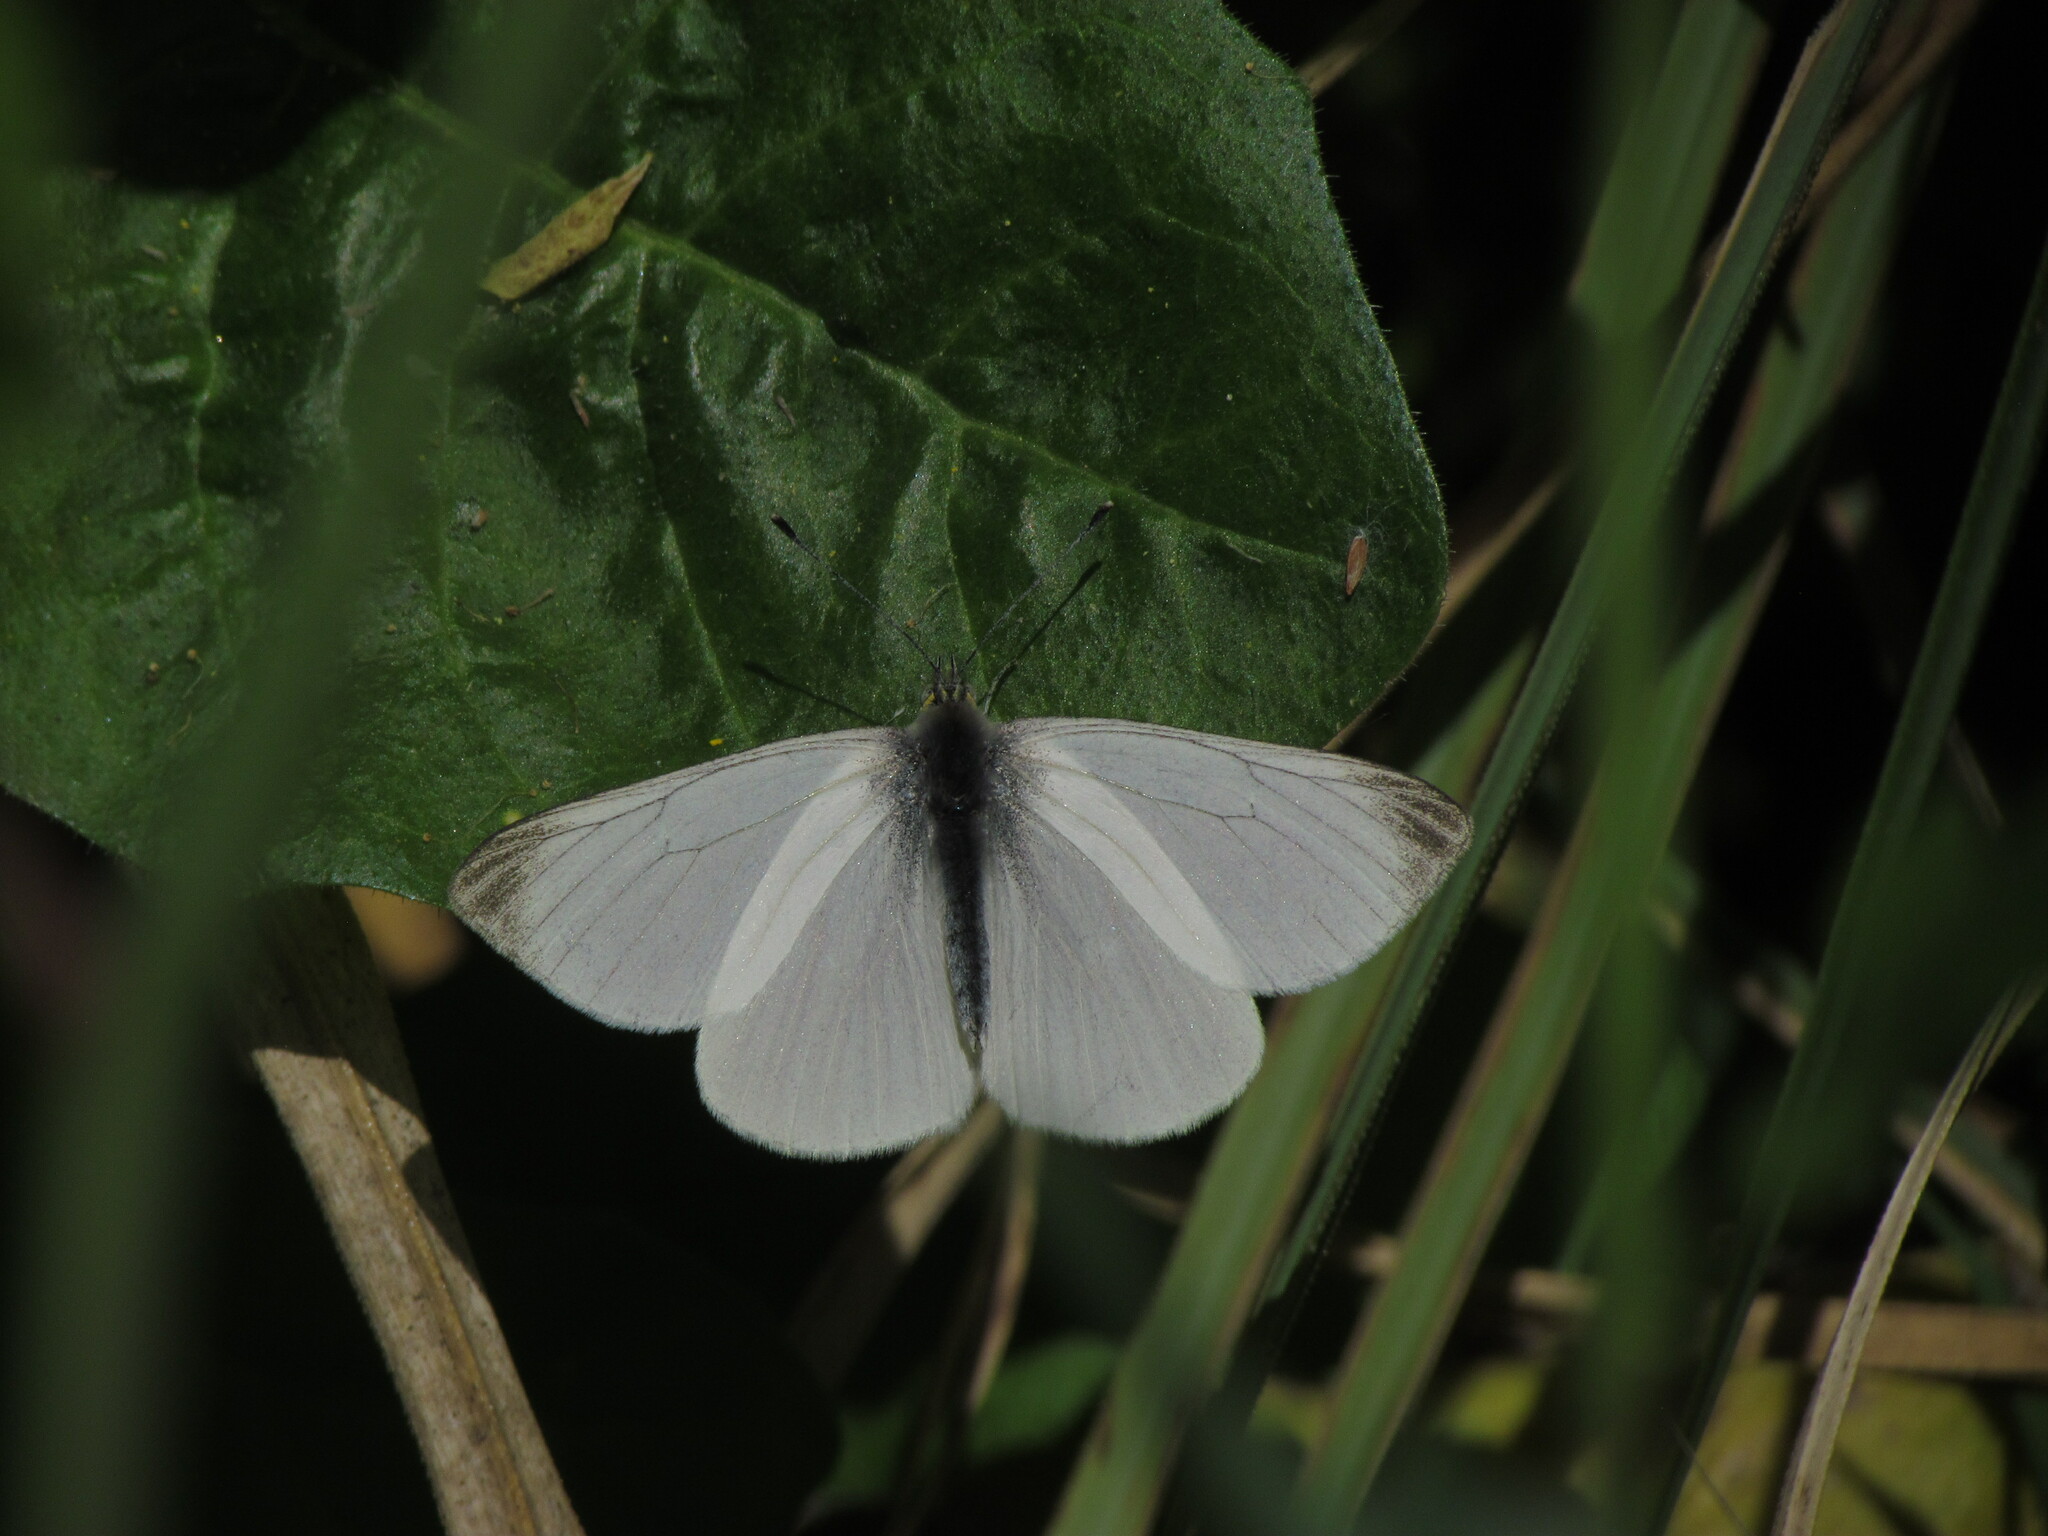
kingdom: Animalia
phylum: Arthropoda
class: Insecta
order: Lepidoptera
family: Pieridae
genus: Theochila
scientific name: Theochila maenacte
